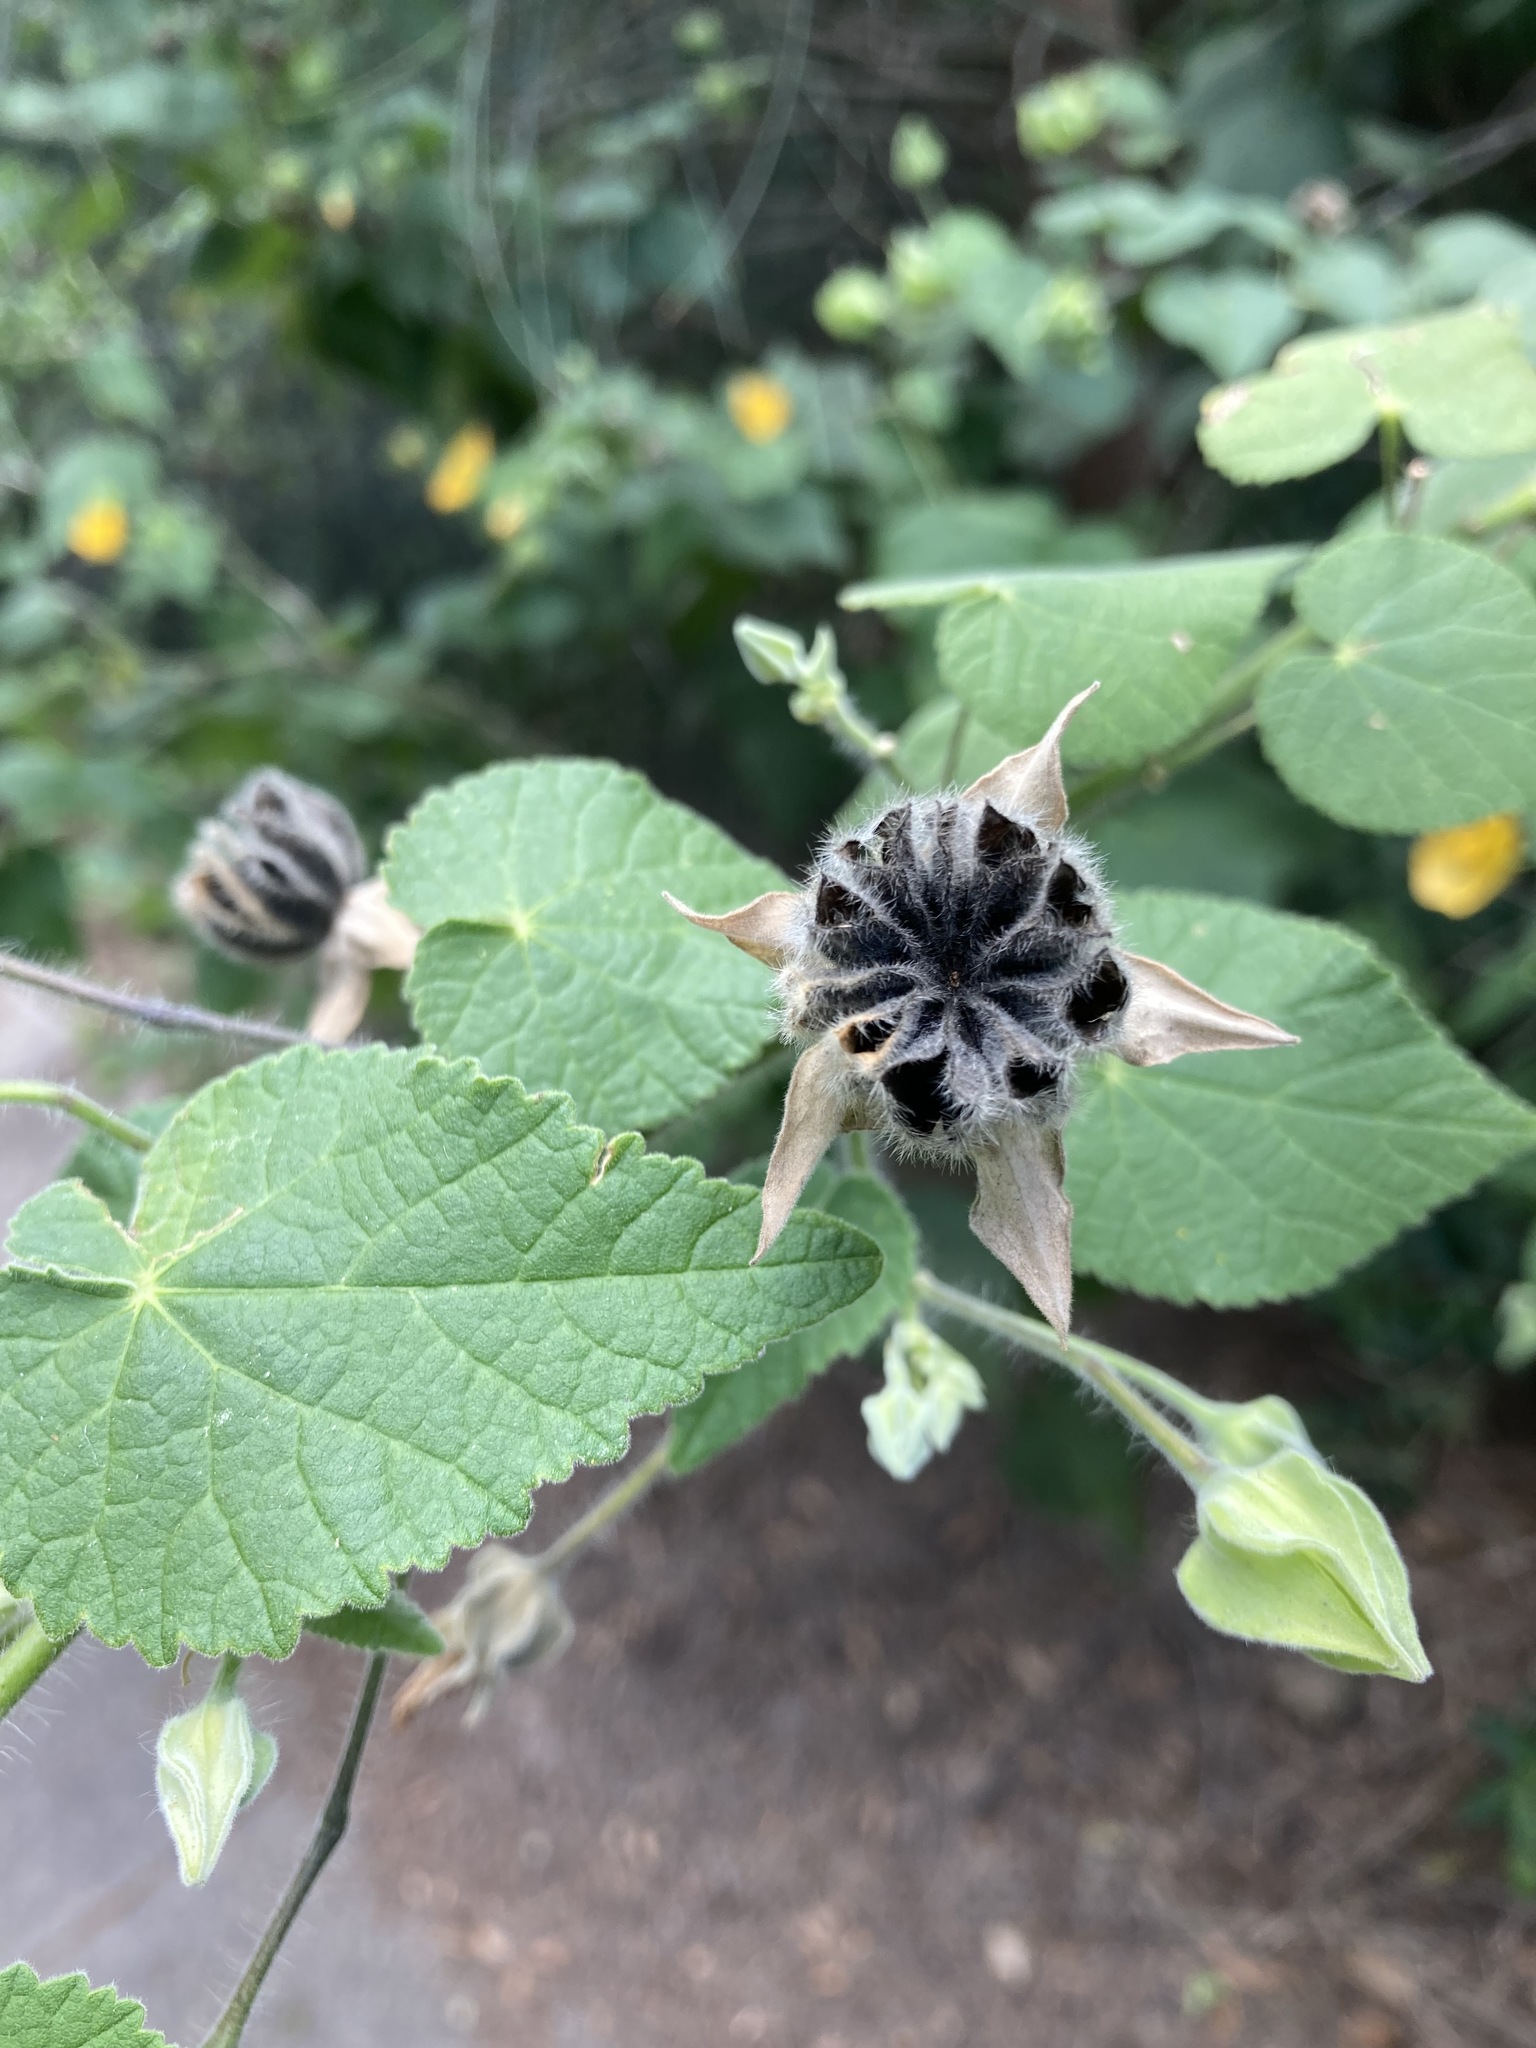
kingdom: Plantae
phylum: Tracheophyta
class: Magnoliopsida
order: Malvales
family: Malvaceae
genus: Abutilon
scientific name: Abutilon grandifolium
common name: Hairy abutilon
